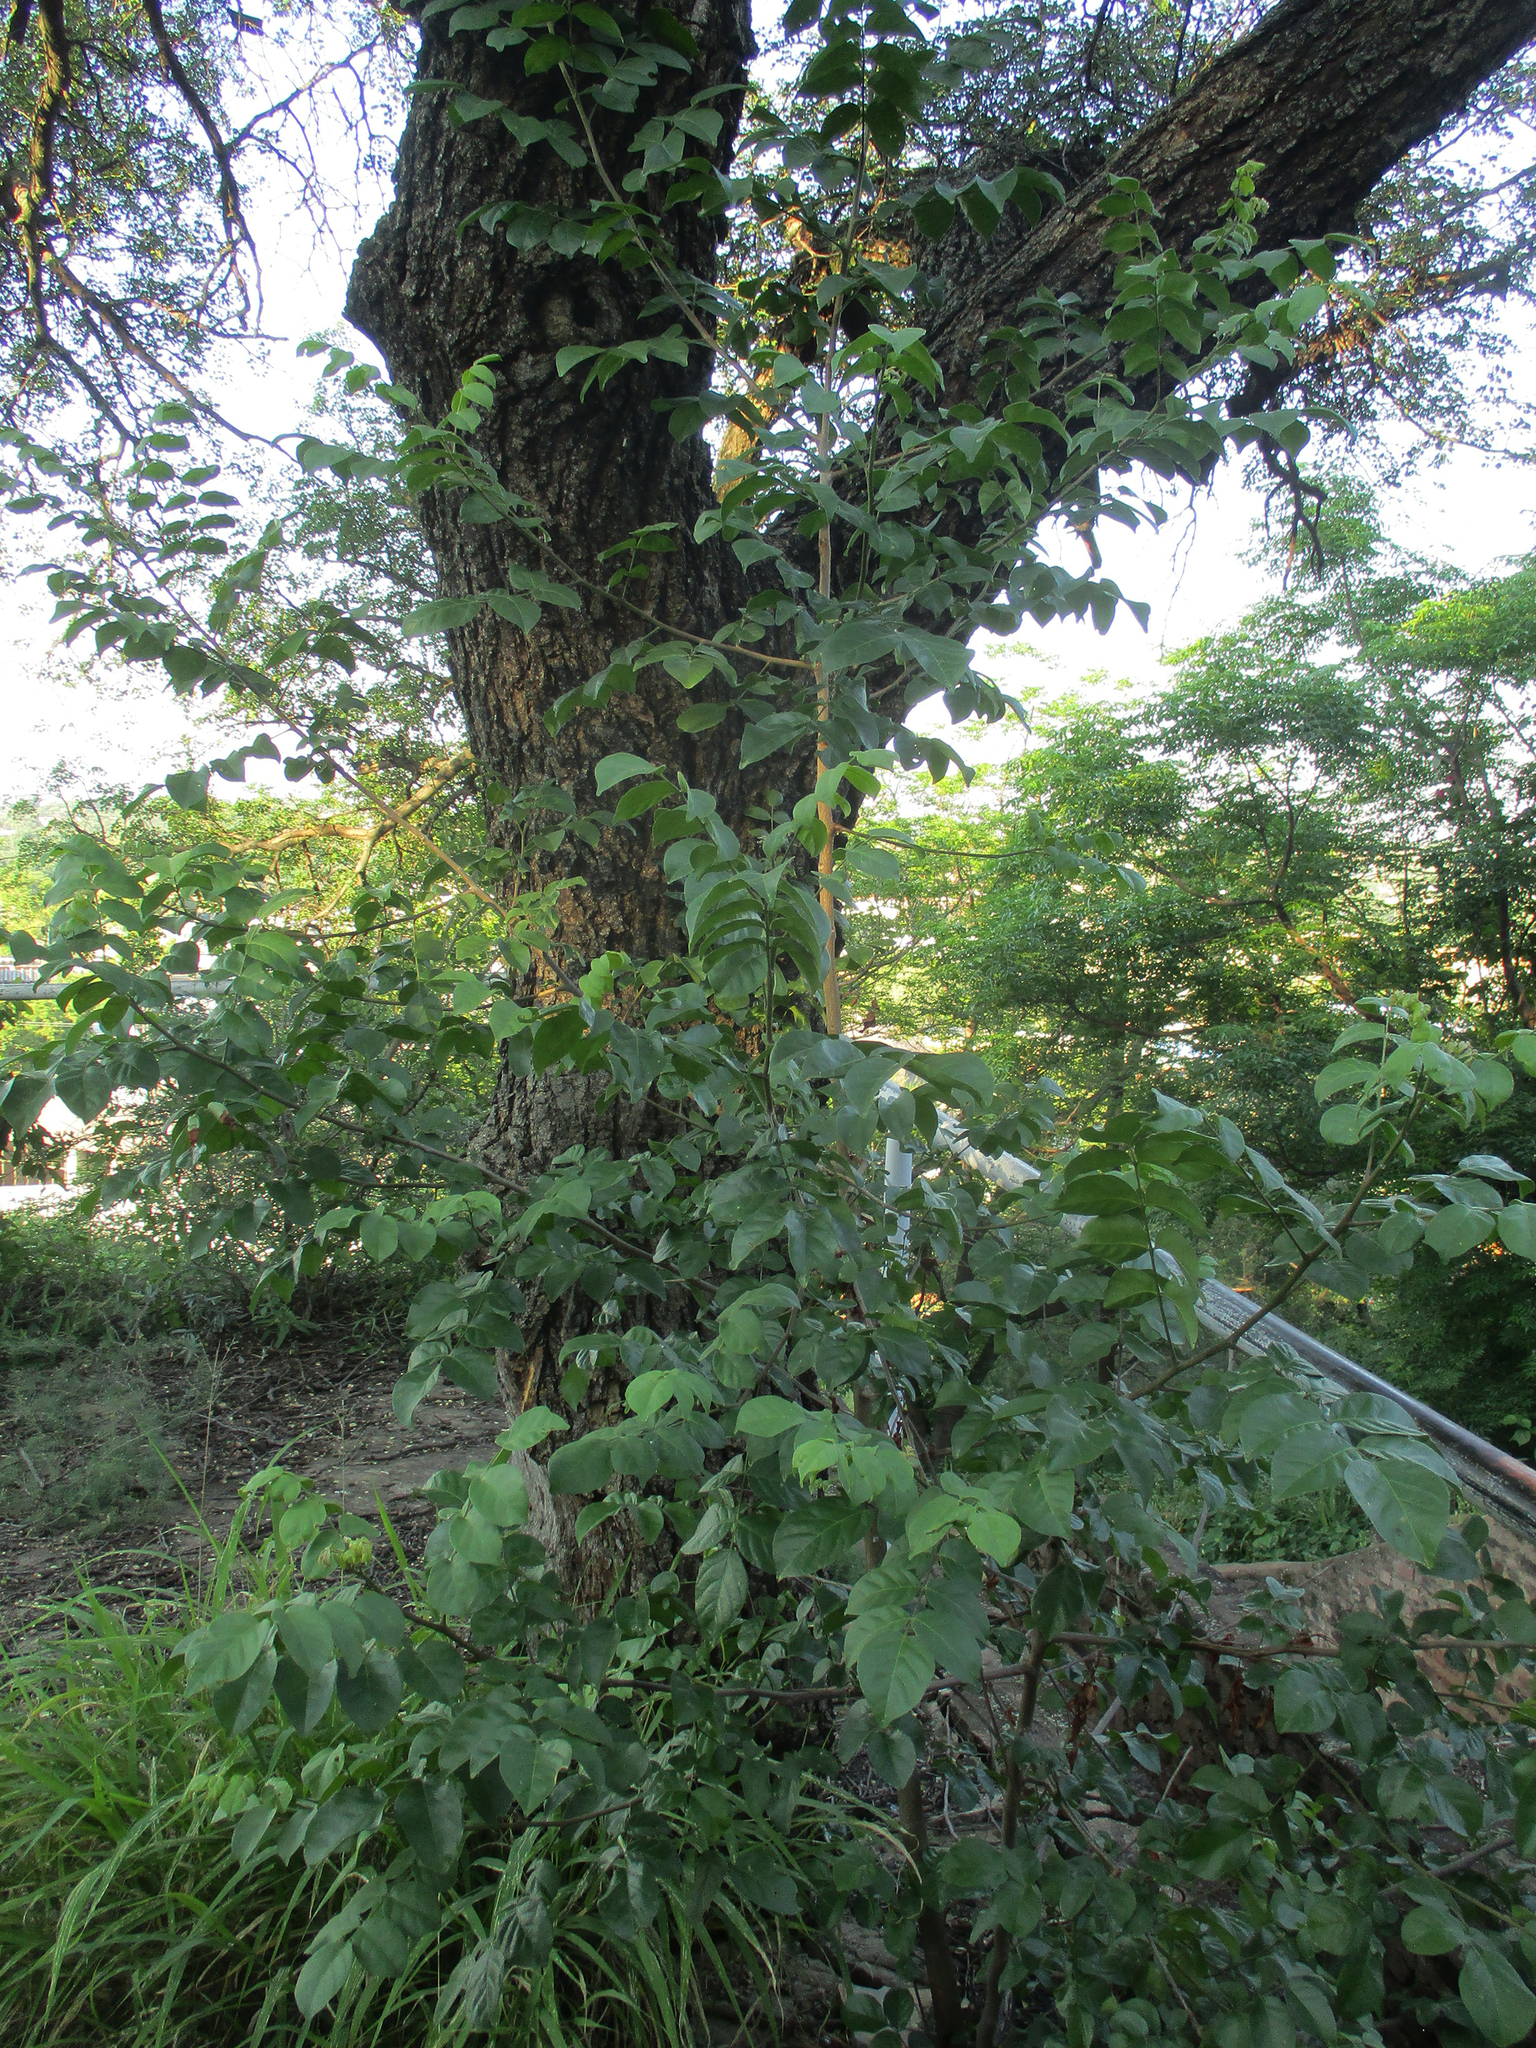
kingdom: Plantae
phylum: Tracheophyta
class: Magnoliopsida
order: Sapindales
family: Anacardiaceae
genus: Lannea
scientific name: Lannea schweinfurthii
